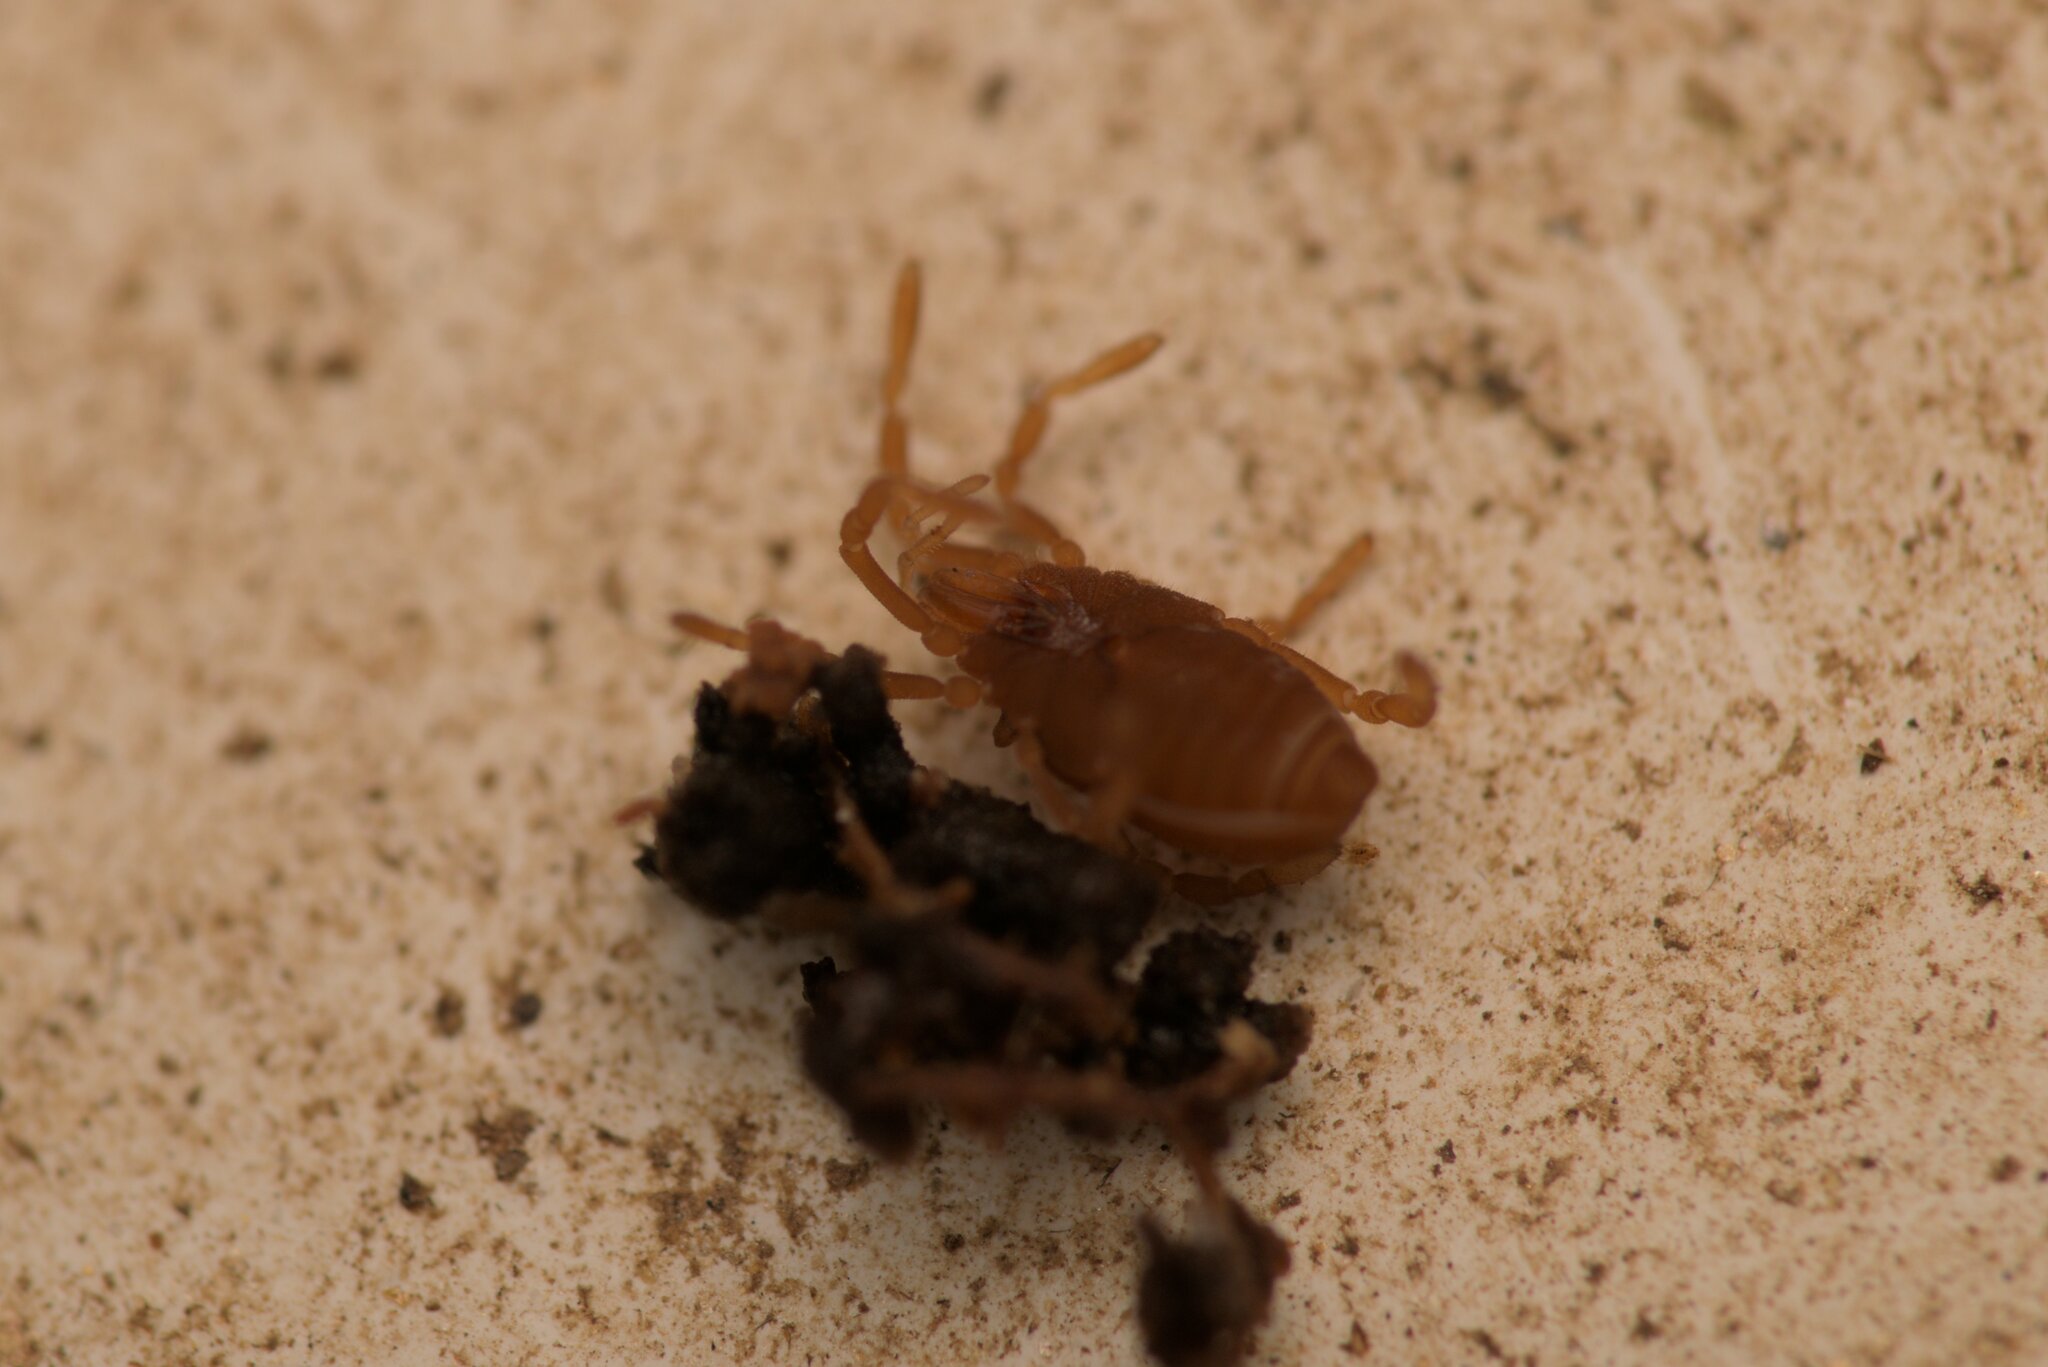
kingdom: Animalia
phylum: Arthropoda
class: Arachnida
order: Opiliones
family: Sironidae
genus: Siro
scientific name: Siro rubens
